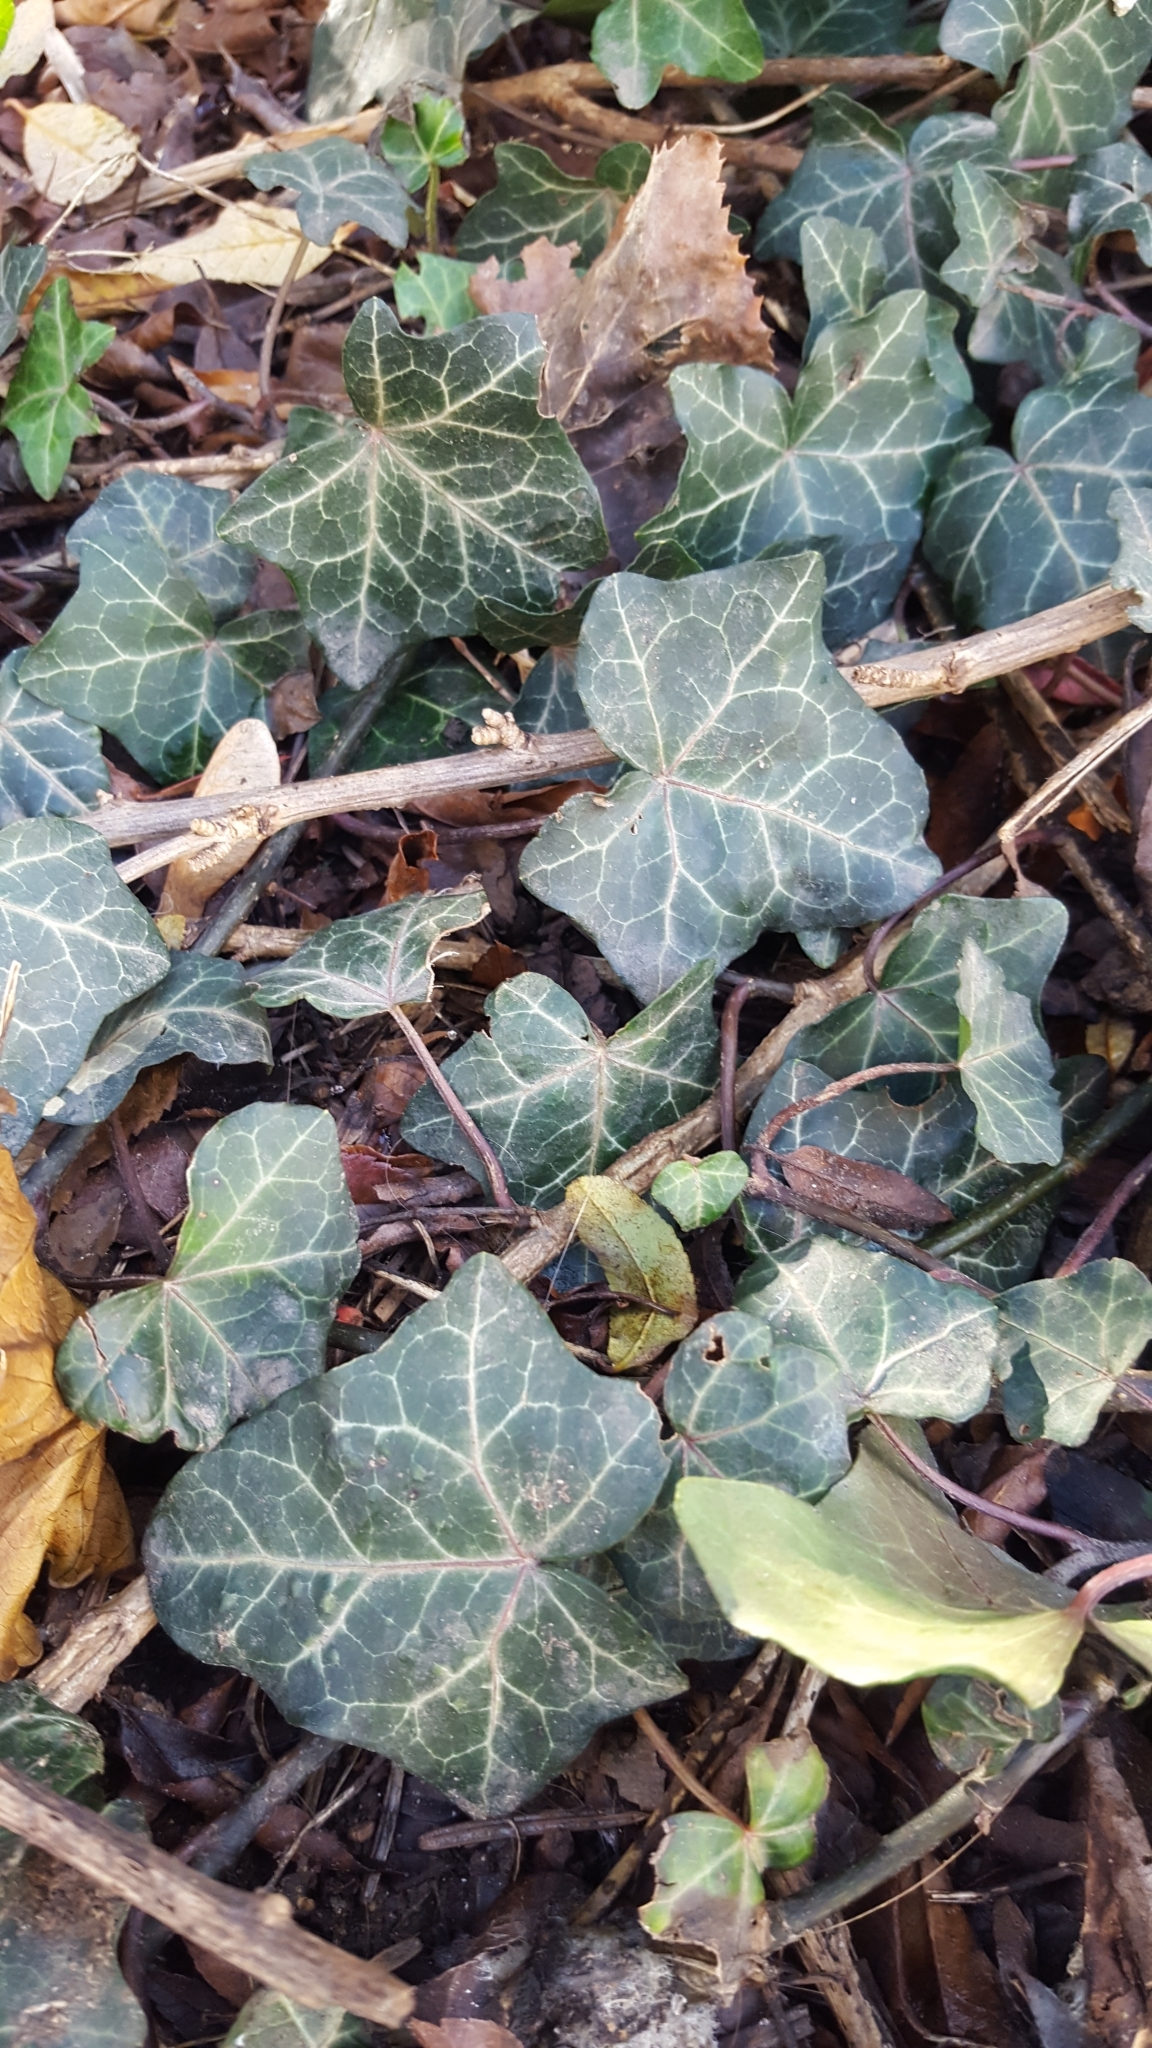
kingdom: Plantae
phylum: Tracheophyta
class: Magnoliopsida
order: Apiales
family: Araliaceae
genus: Hedera
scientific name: Hedera helix
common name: Ivy
